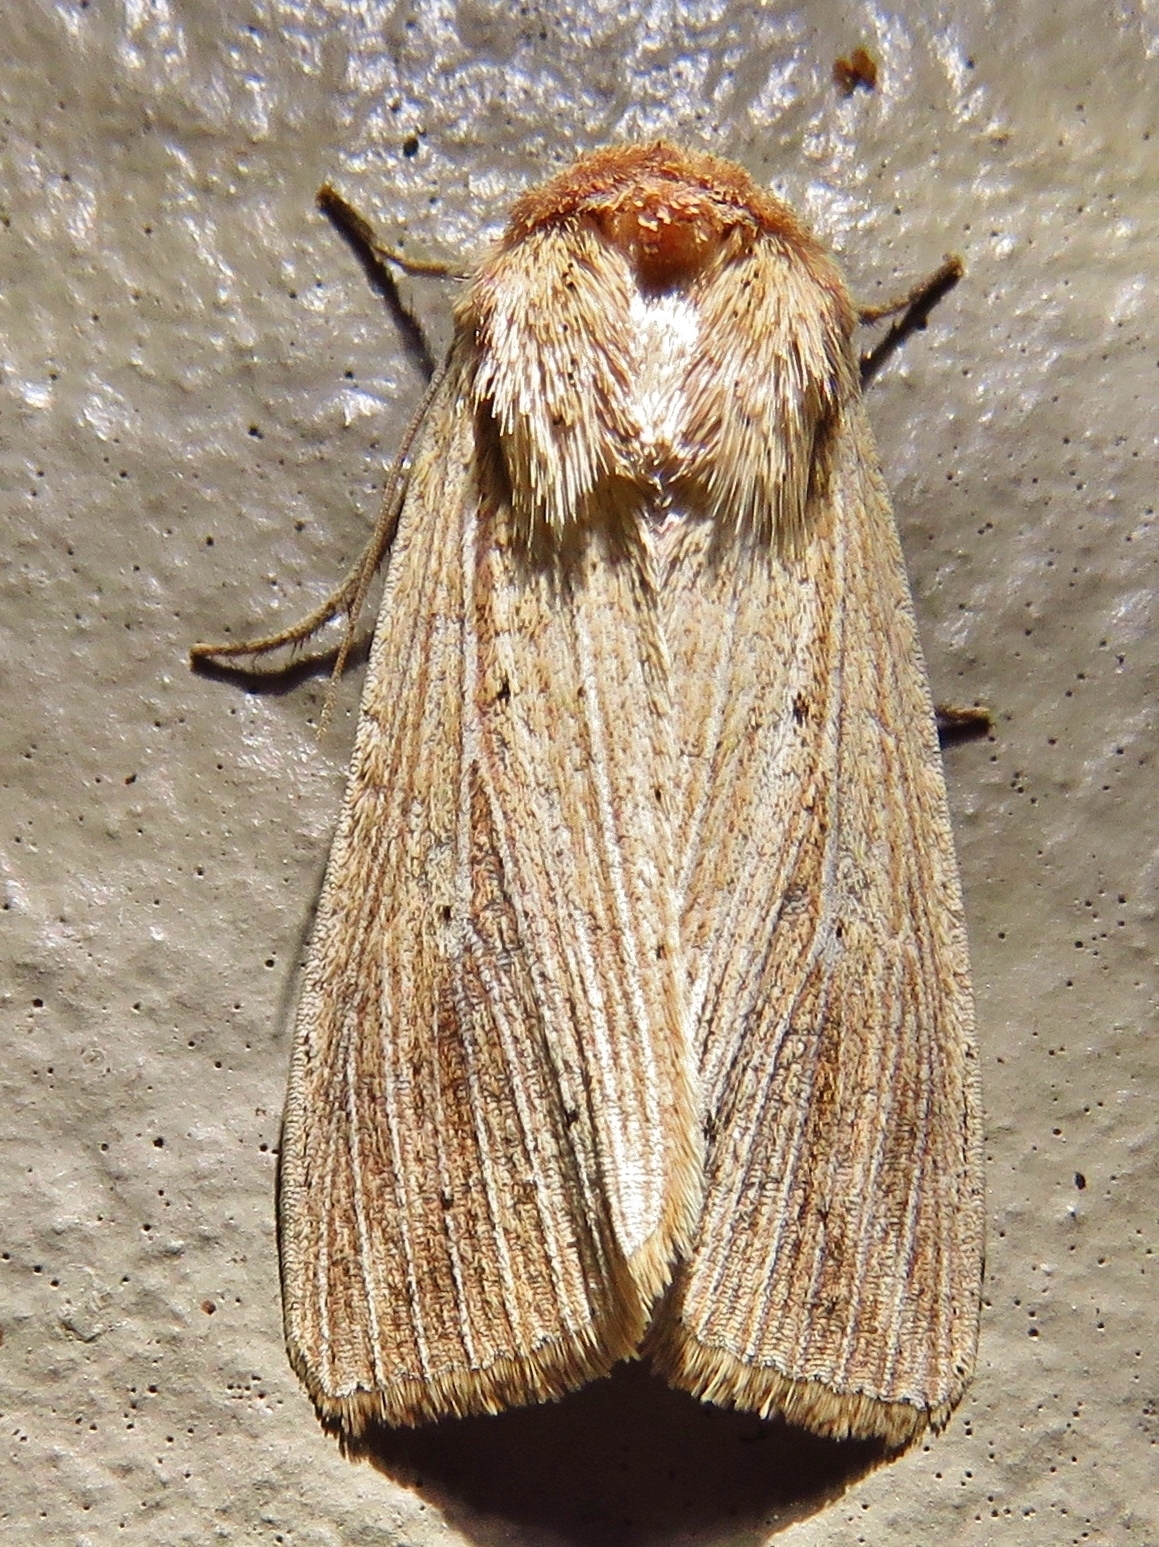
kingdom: Animalia
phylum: Arthropoda
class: Insecta
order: Lepidoptera
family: Noctuidae
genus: Leucania
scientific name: Leucania adjuta
